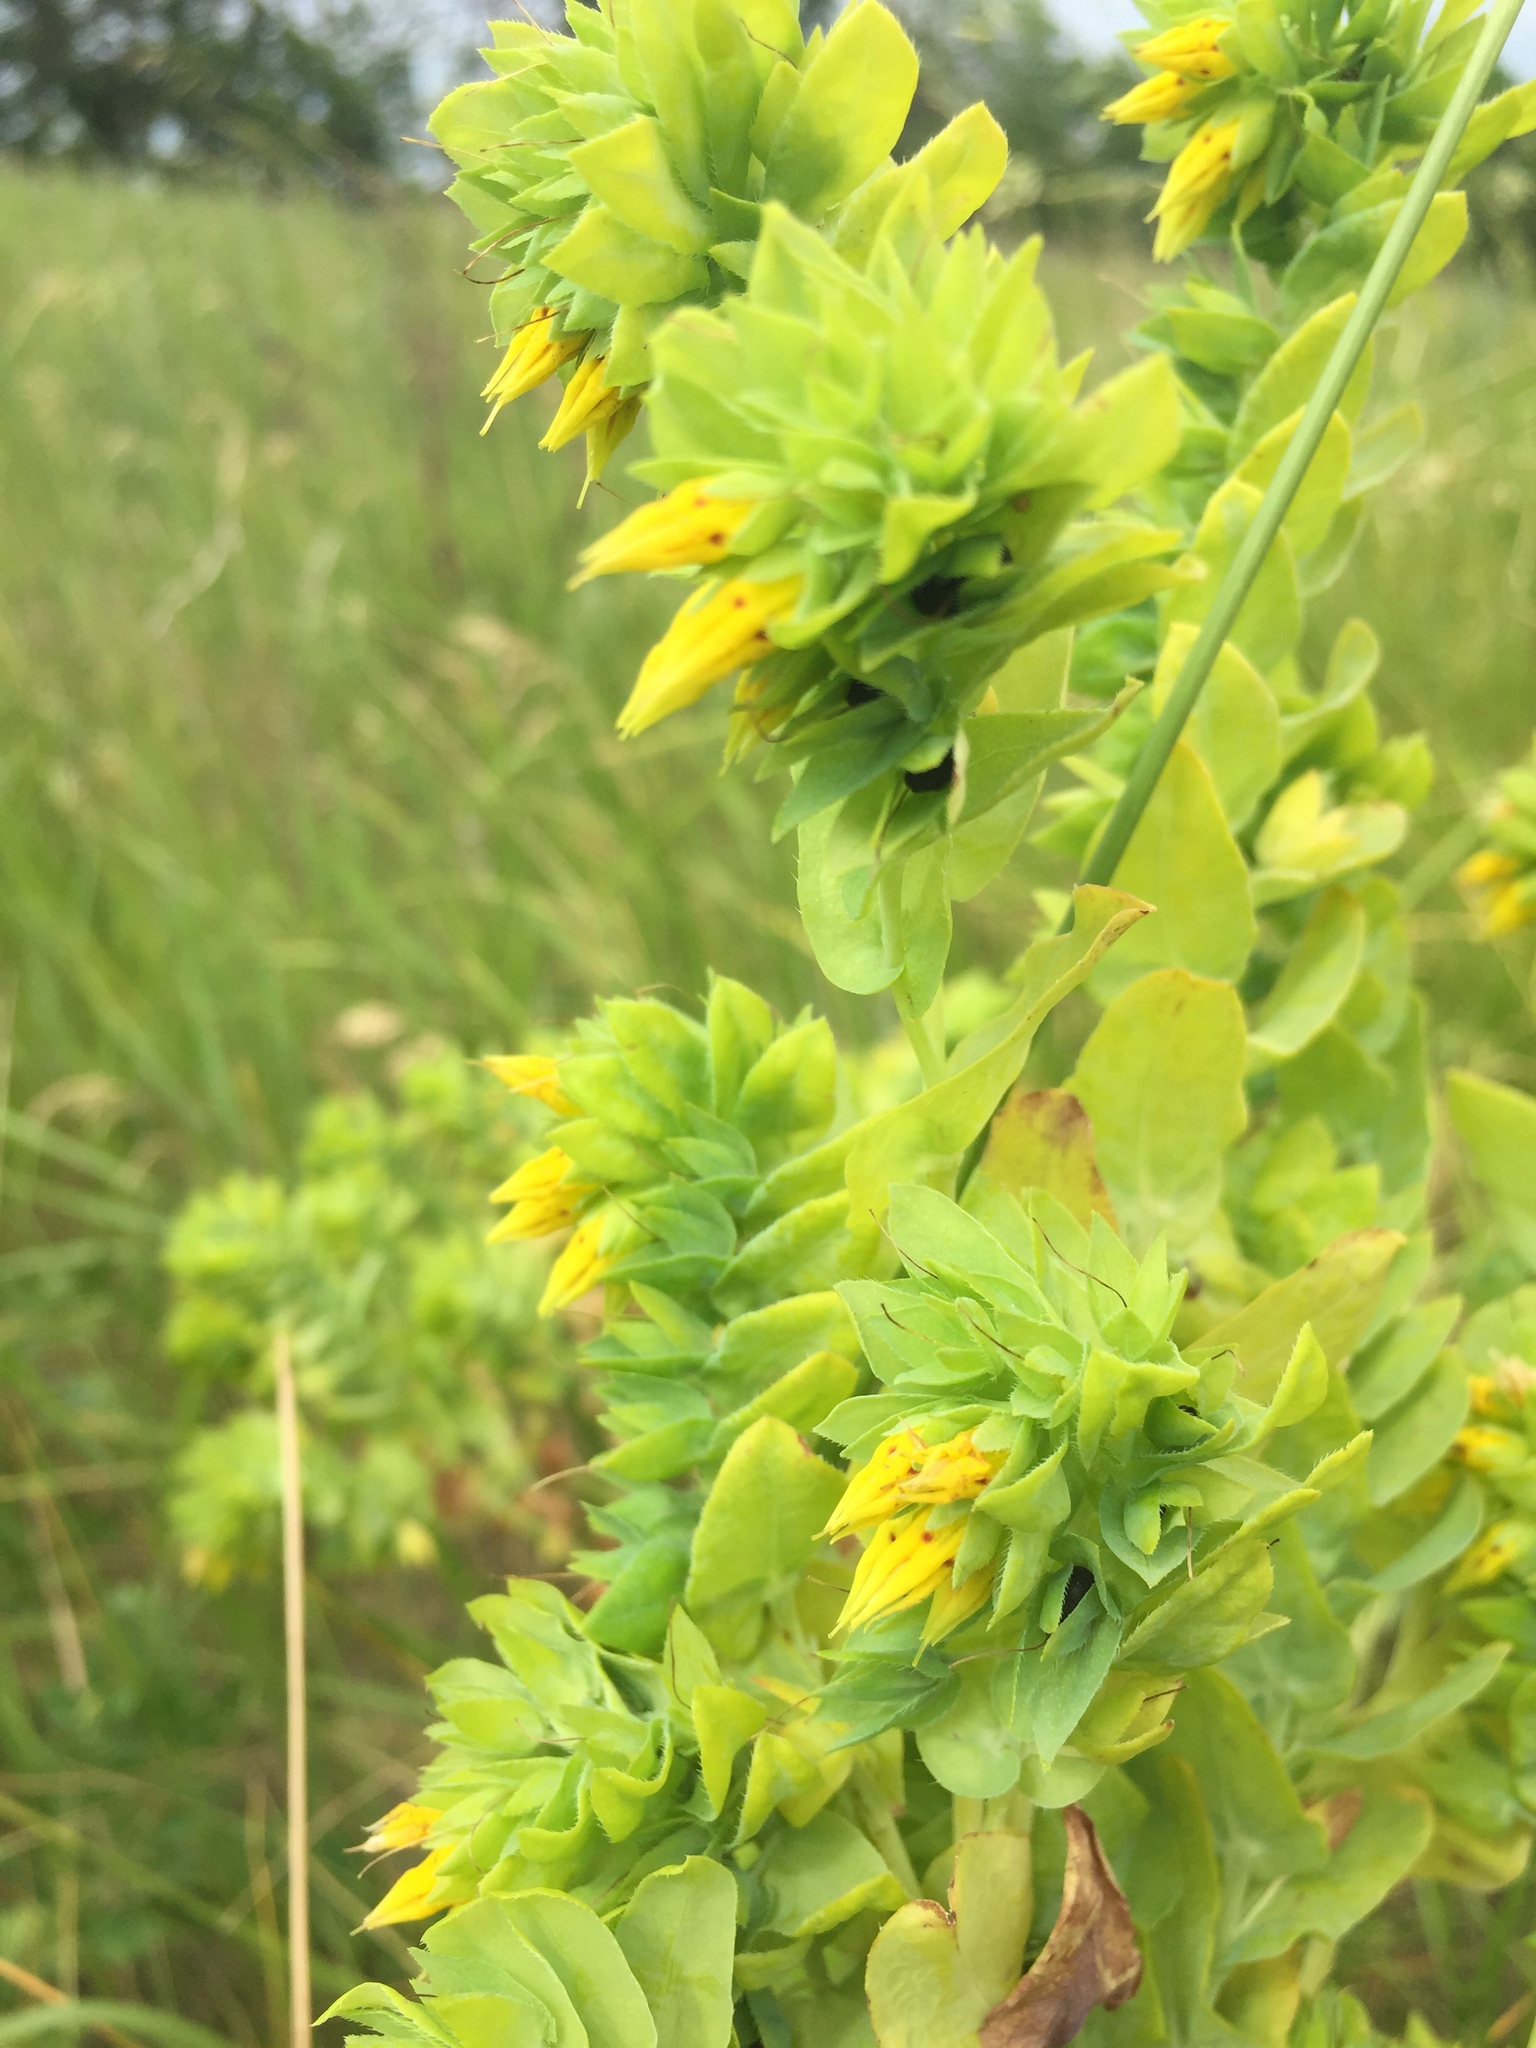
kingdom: Plantae
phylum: Tracheophyta
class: Magnoliopsida
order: Boraginales
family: Boraginaceae
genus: Cerinthe
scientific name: Cerinthe minor
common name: Lesser honeywort
